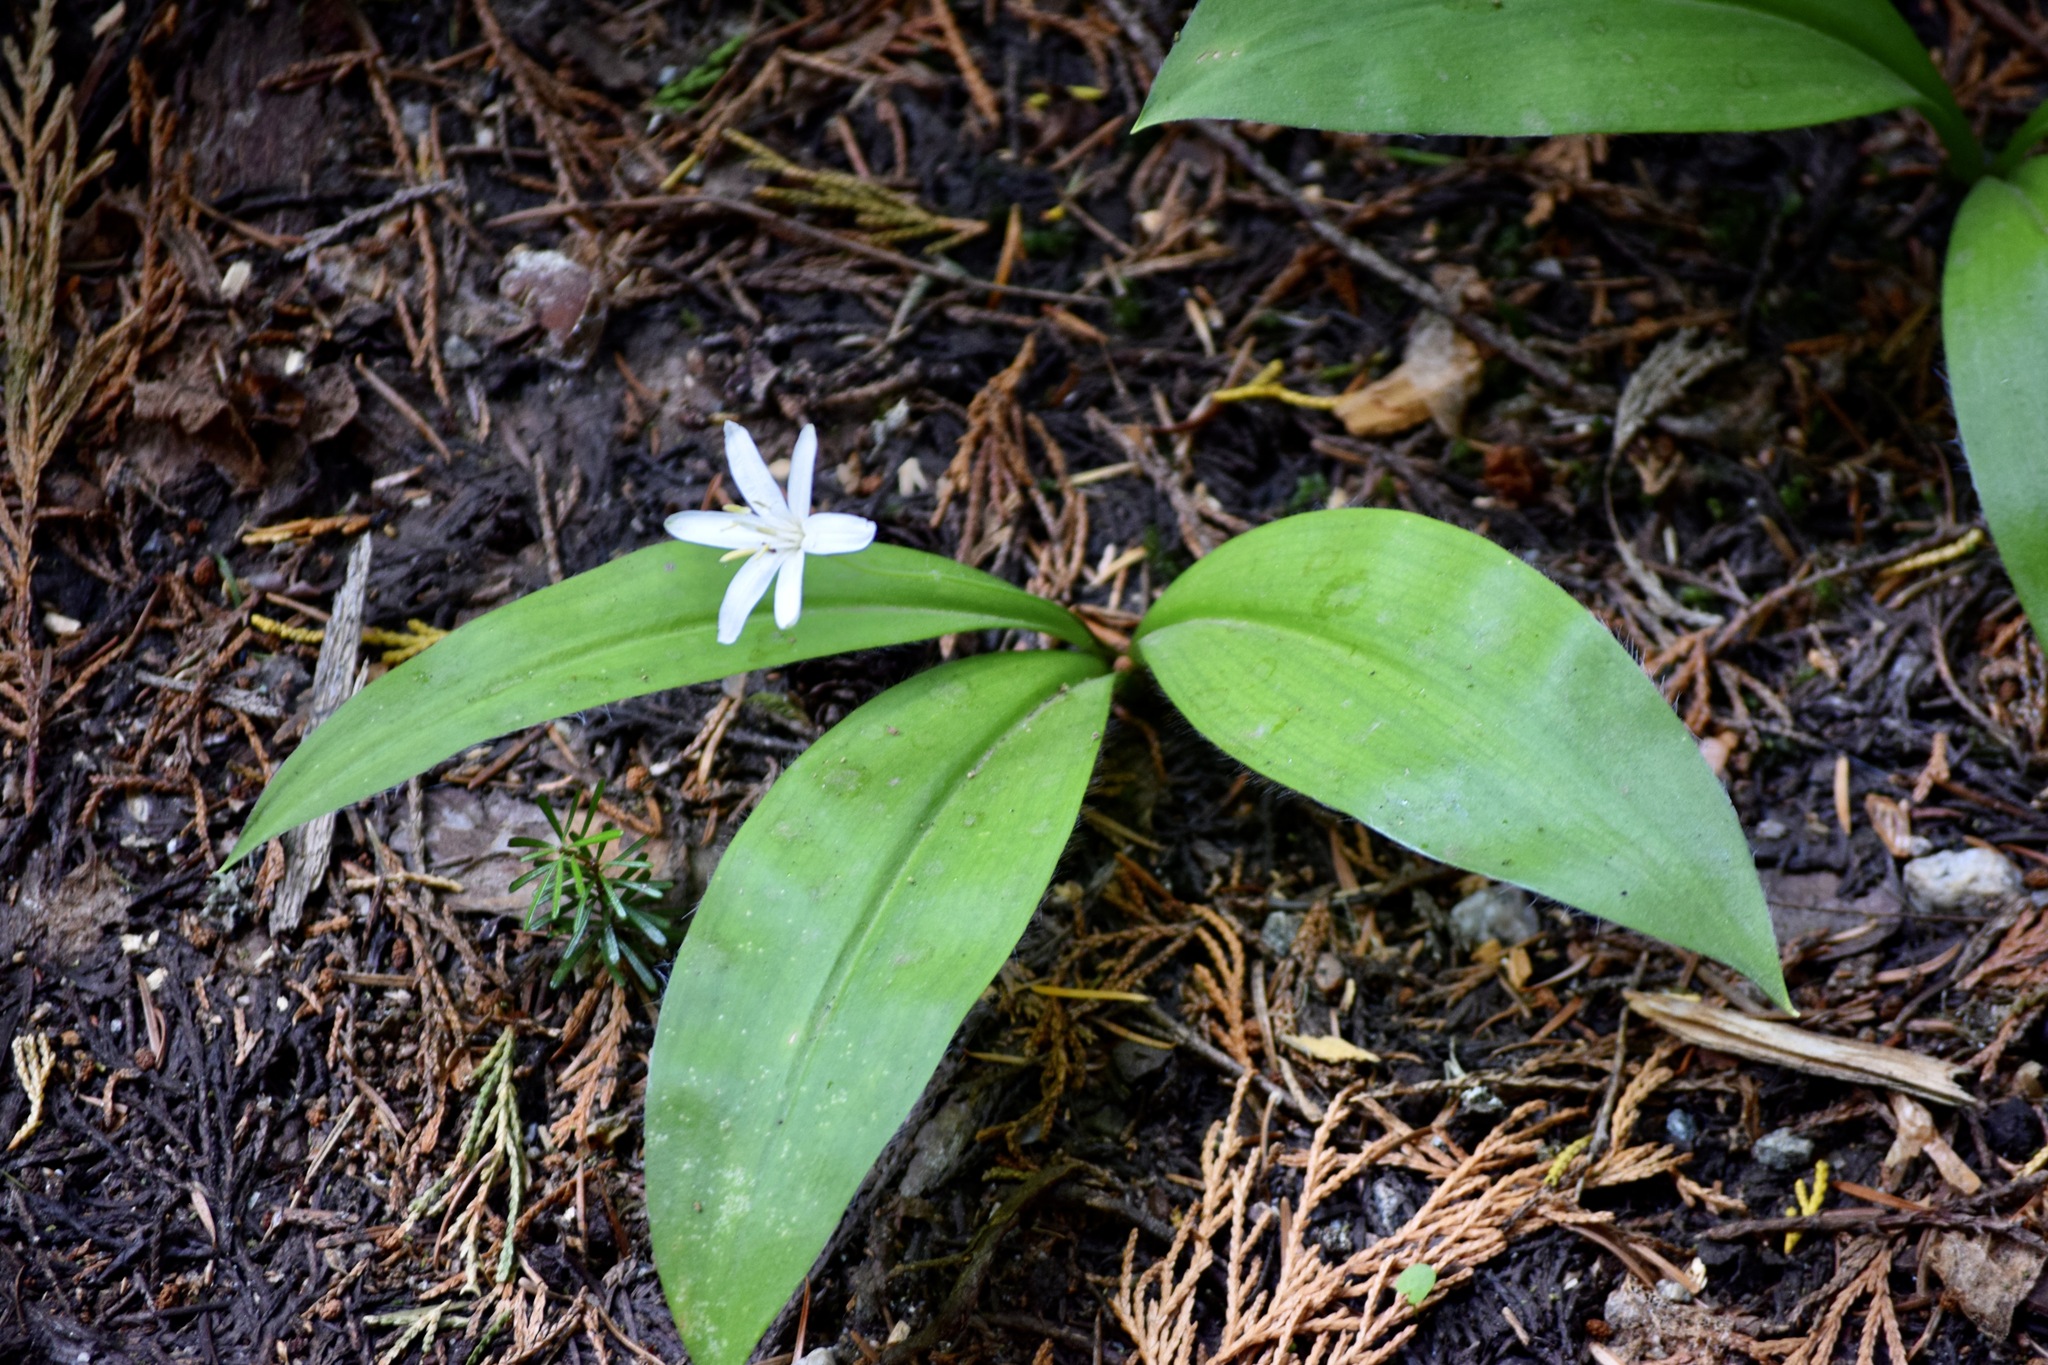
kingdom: Plantae
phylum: Tracheophyta
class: Liliopsida
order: Liliales
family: Liliaceae
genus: Clintonia
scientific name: Clintonia uniflora
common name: Queen's cup
